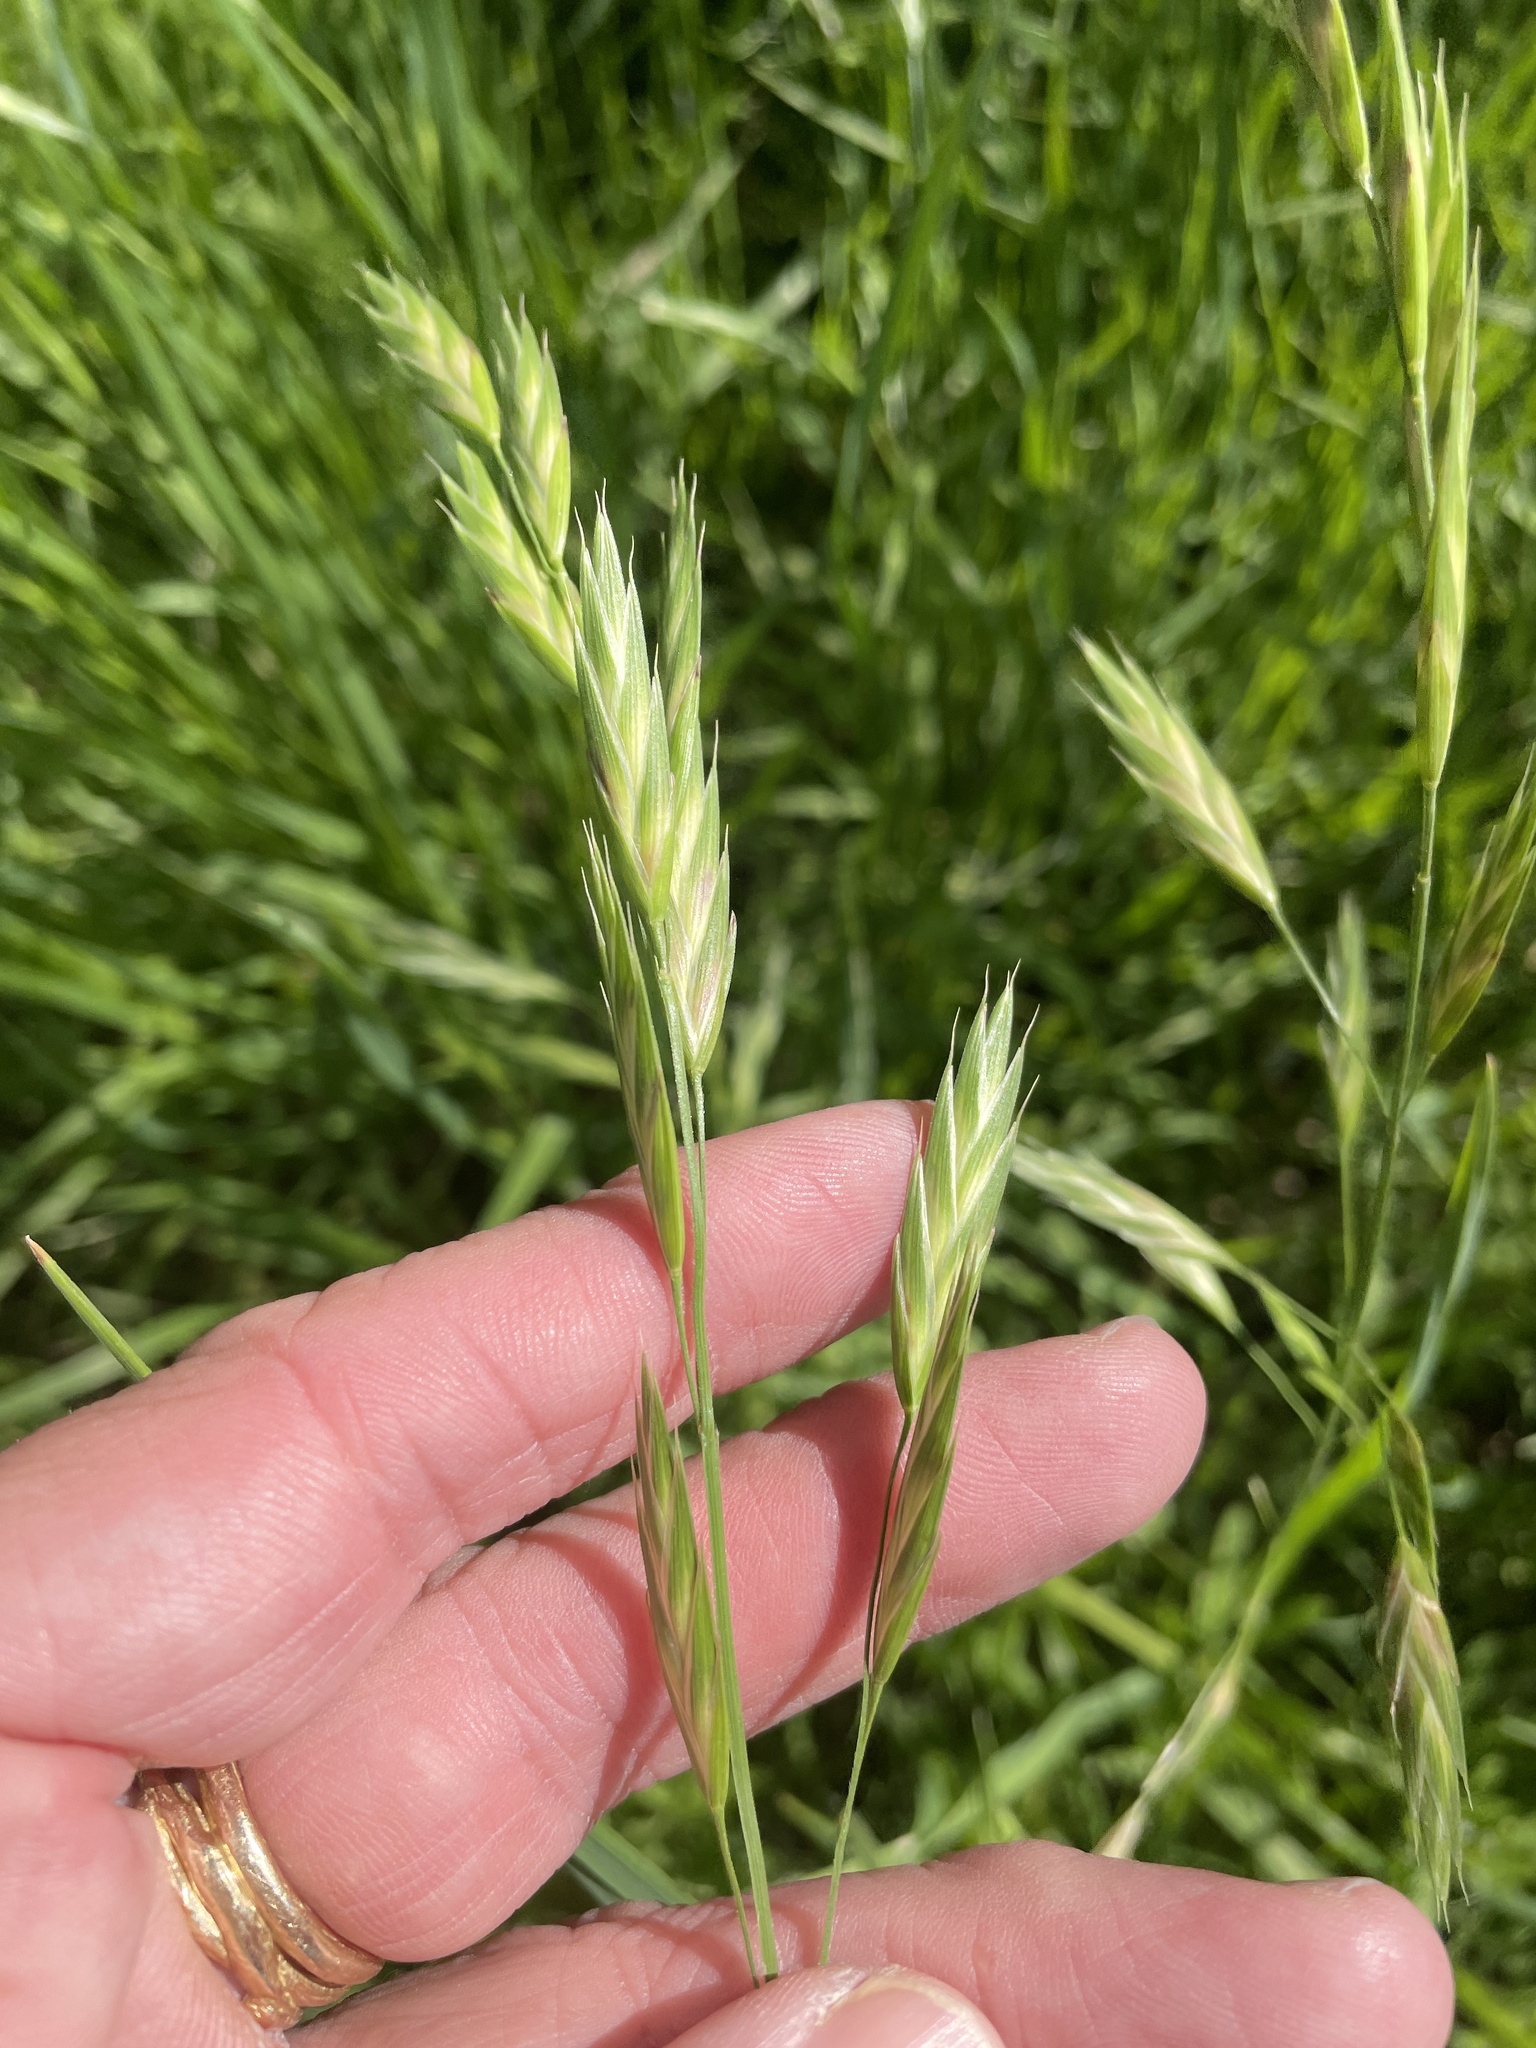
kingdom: Plantae
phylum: Tracheophyta
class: Liliopsida
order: Poales
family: Poaceae
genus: Bromus
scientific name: Bromus catharticus
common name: Rescuegrass
